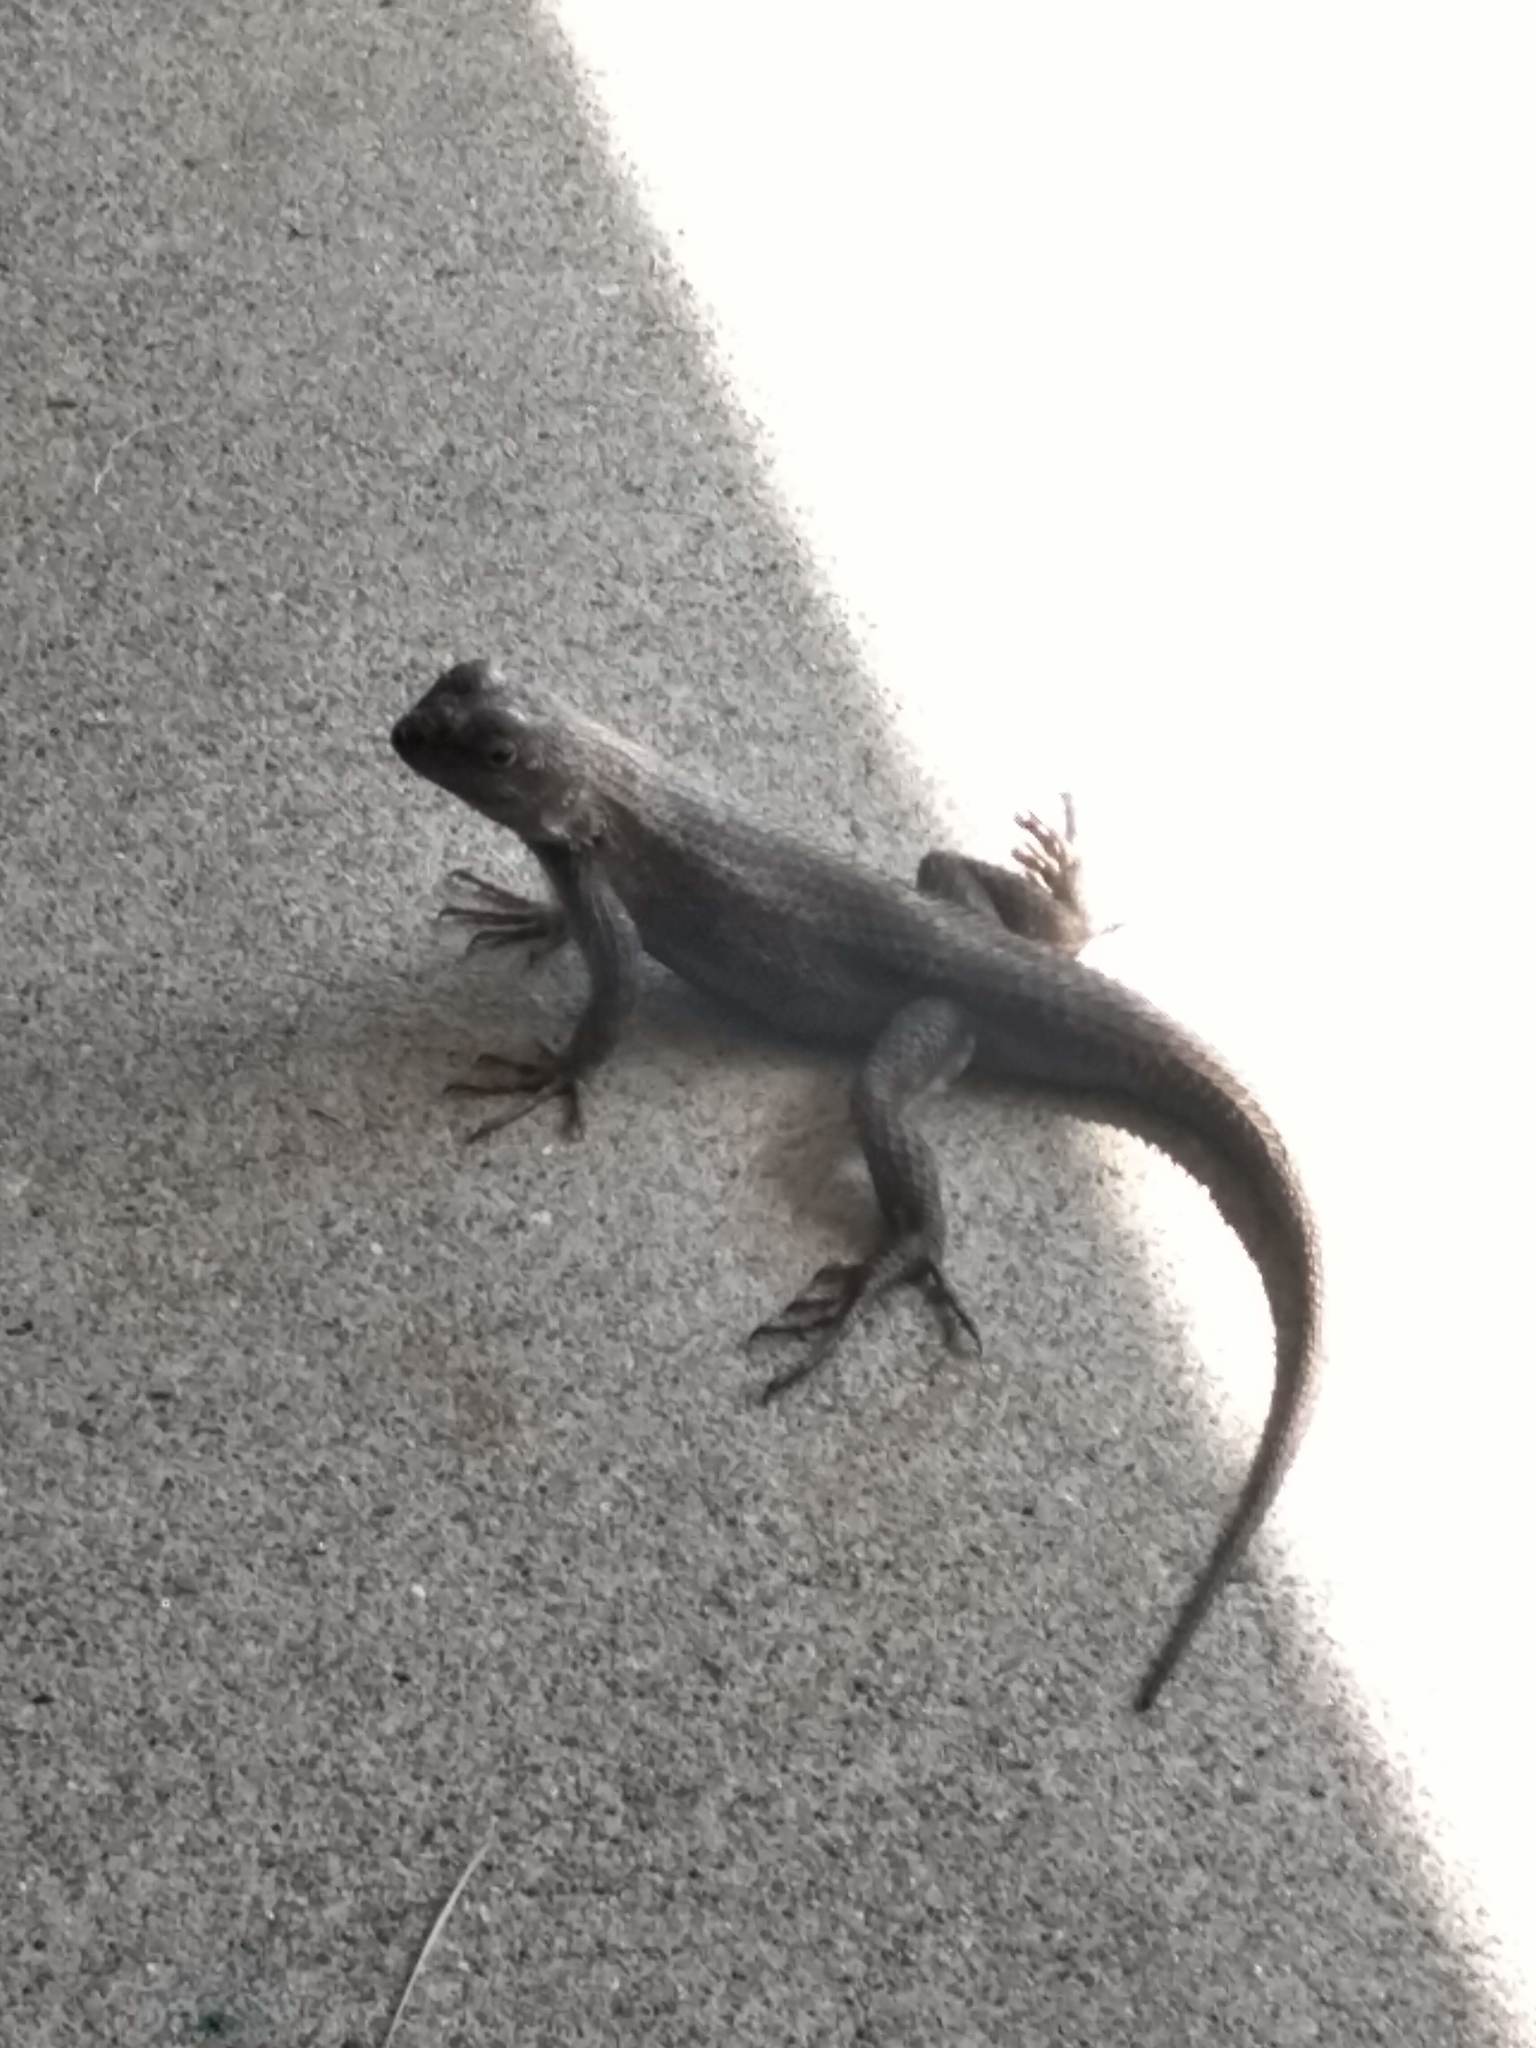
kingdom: Animalia
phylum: Chordata
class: Squamata
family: Phrynosomatidae
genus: Sceloporus
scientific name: Sceloporus occidentalis
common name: Western fence lizard
